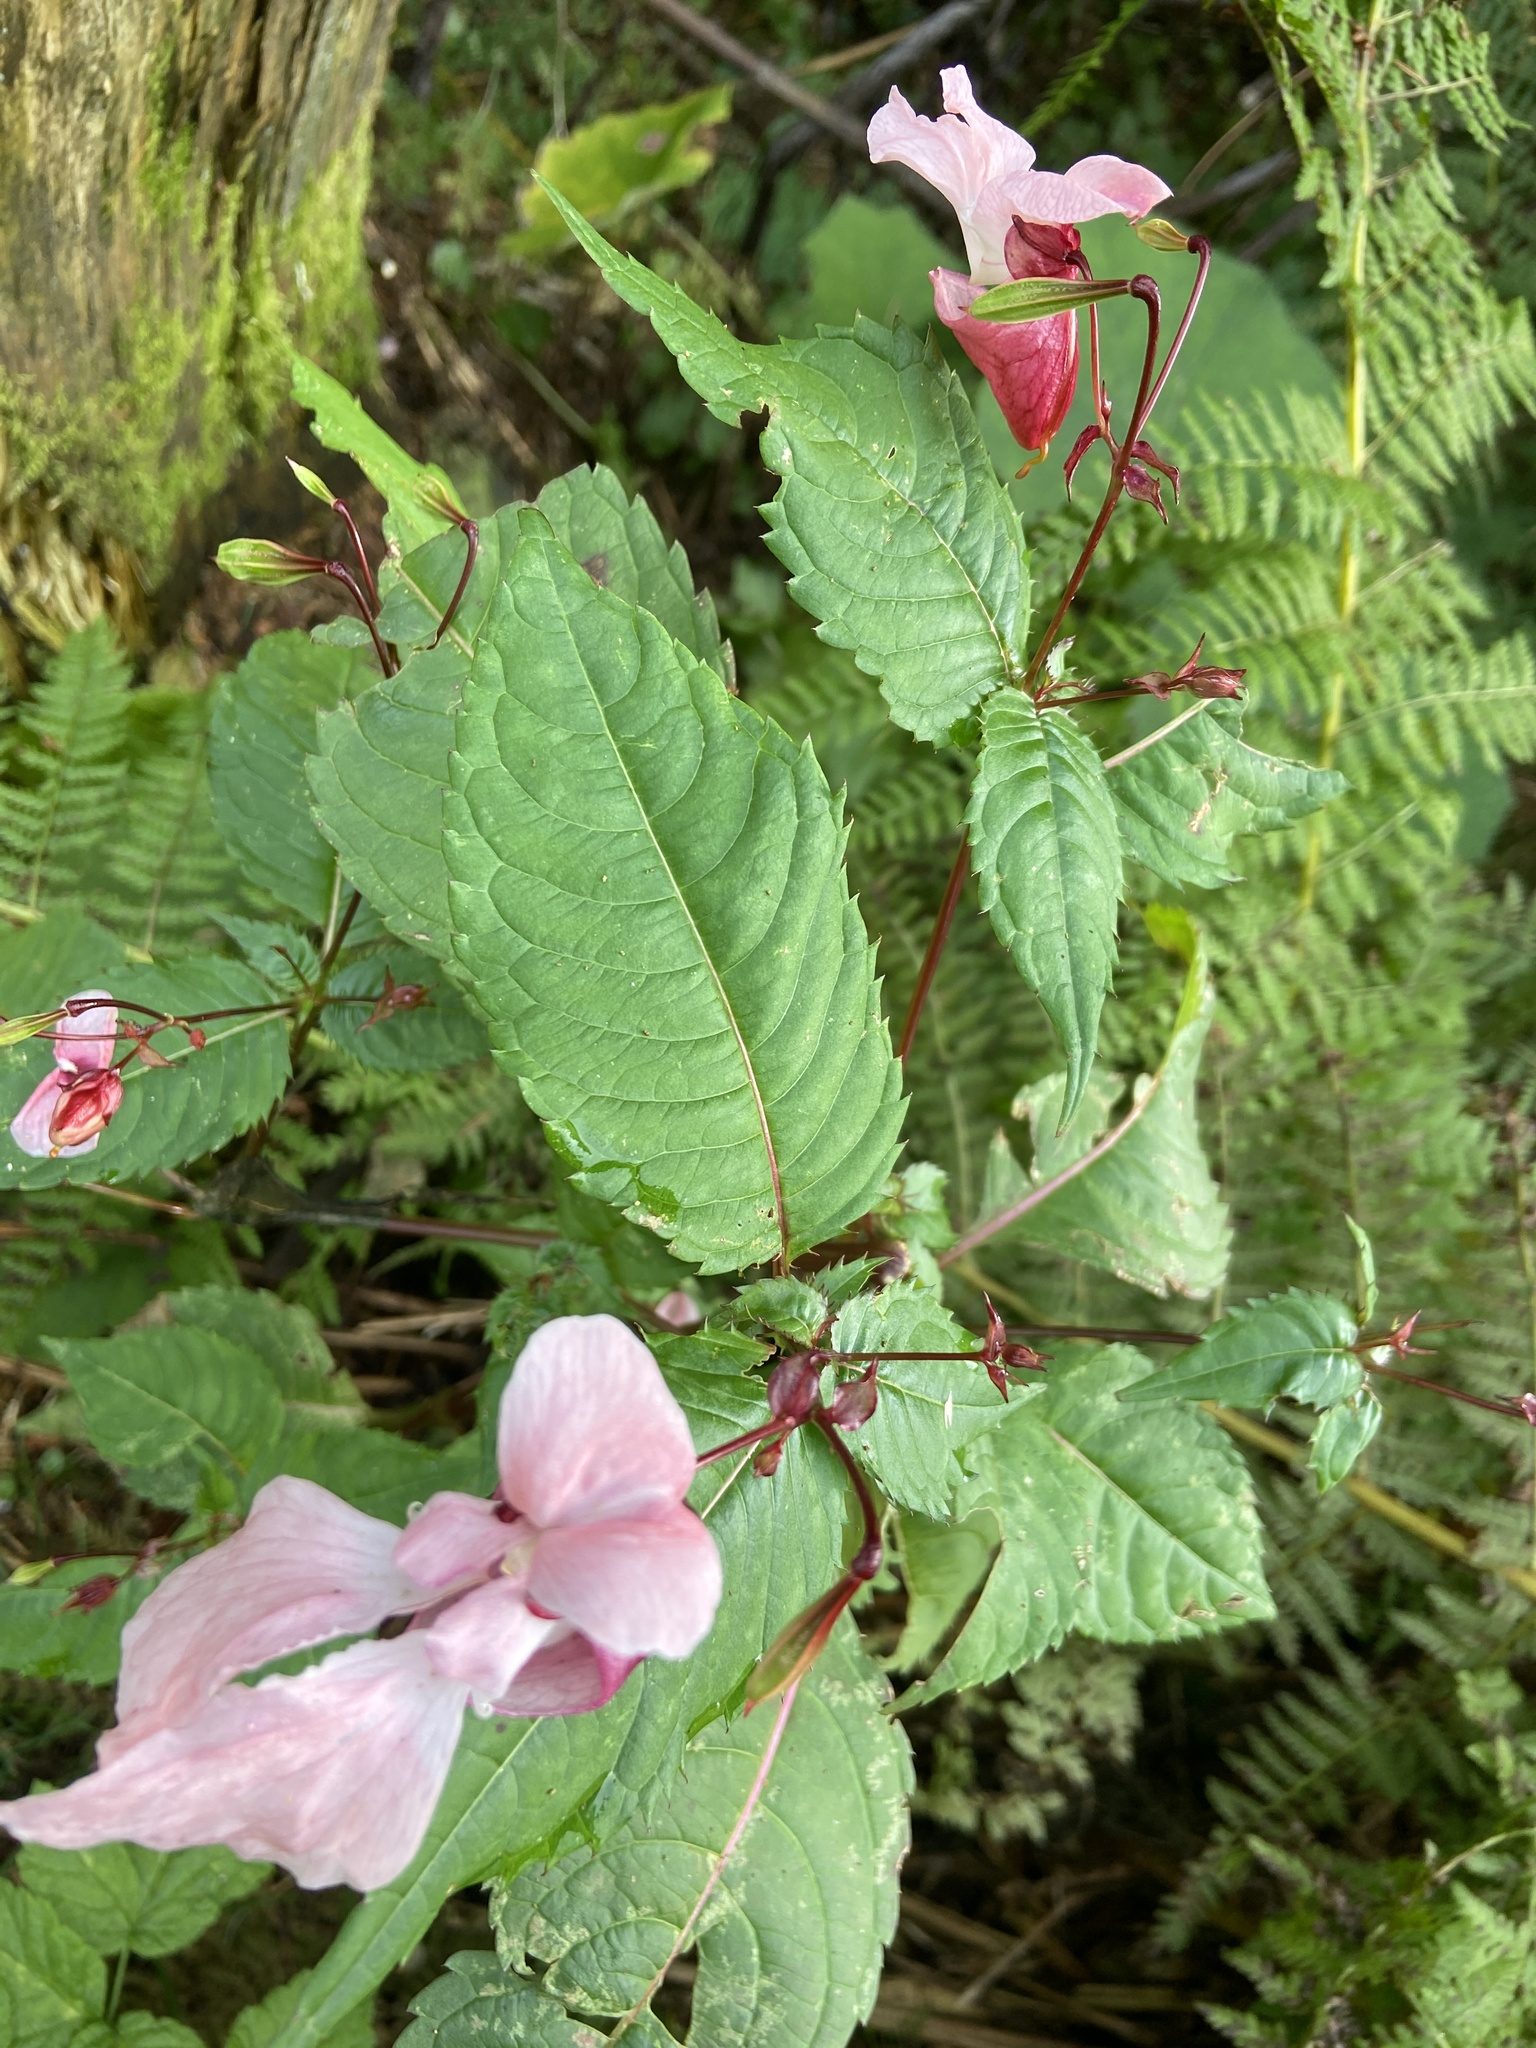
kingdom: Plantae
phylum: Tracheophyta
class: Magnoliopsida
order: Ericales
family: Balsaminaceae
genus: Impatiens
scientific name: Impatiens glandulifera
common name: Himalayan balsam
